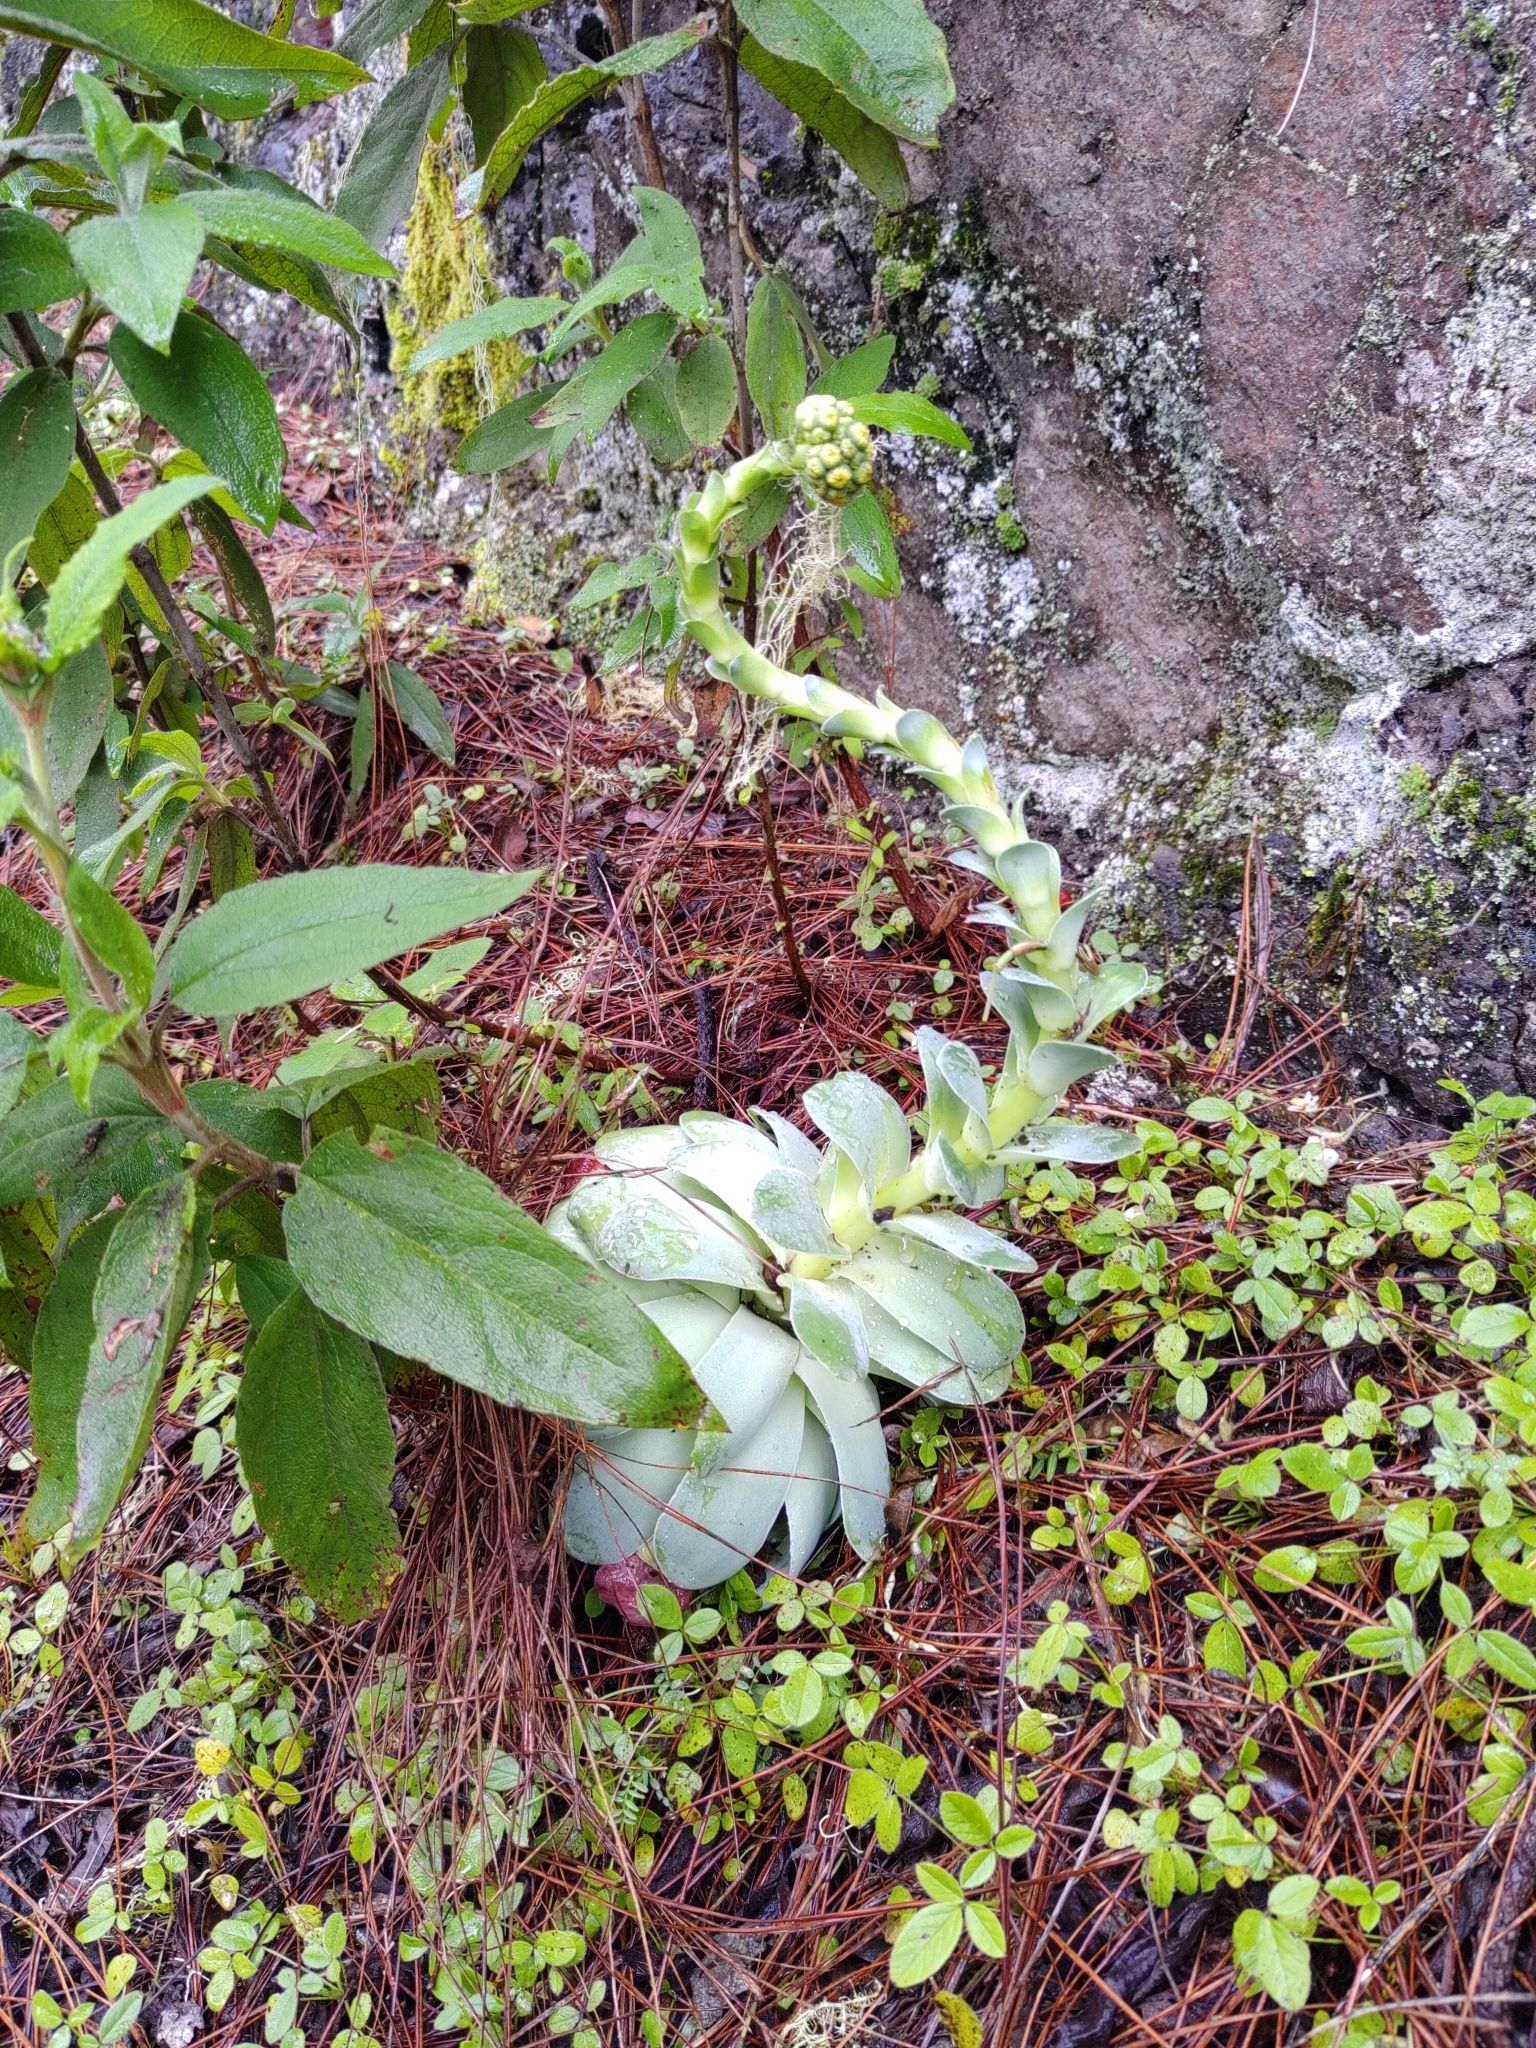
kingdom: Plantae
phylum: Tracheophyta
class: Magnoliopsida
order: Saxifragales
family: Crassulaceae
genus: Aeonium
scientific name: Aeonium aureum
